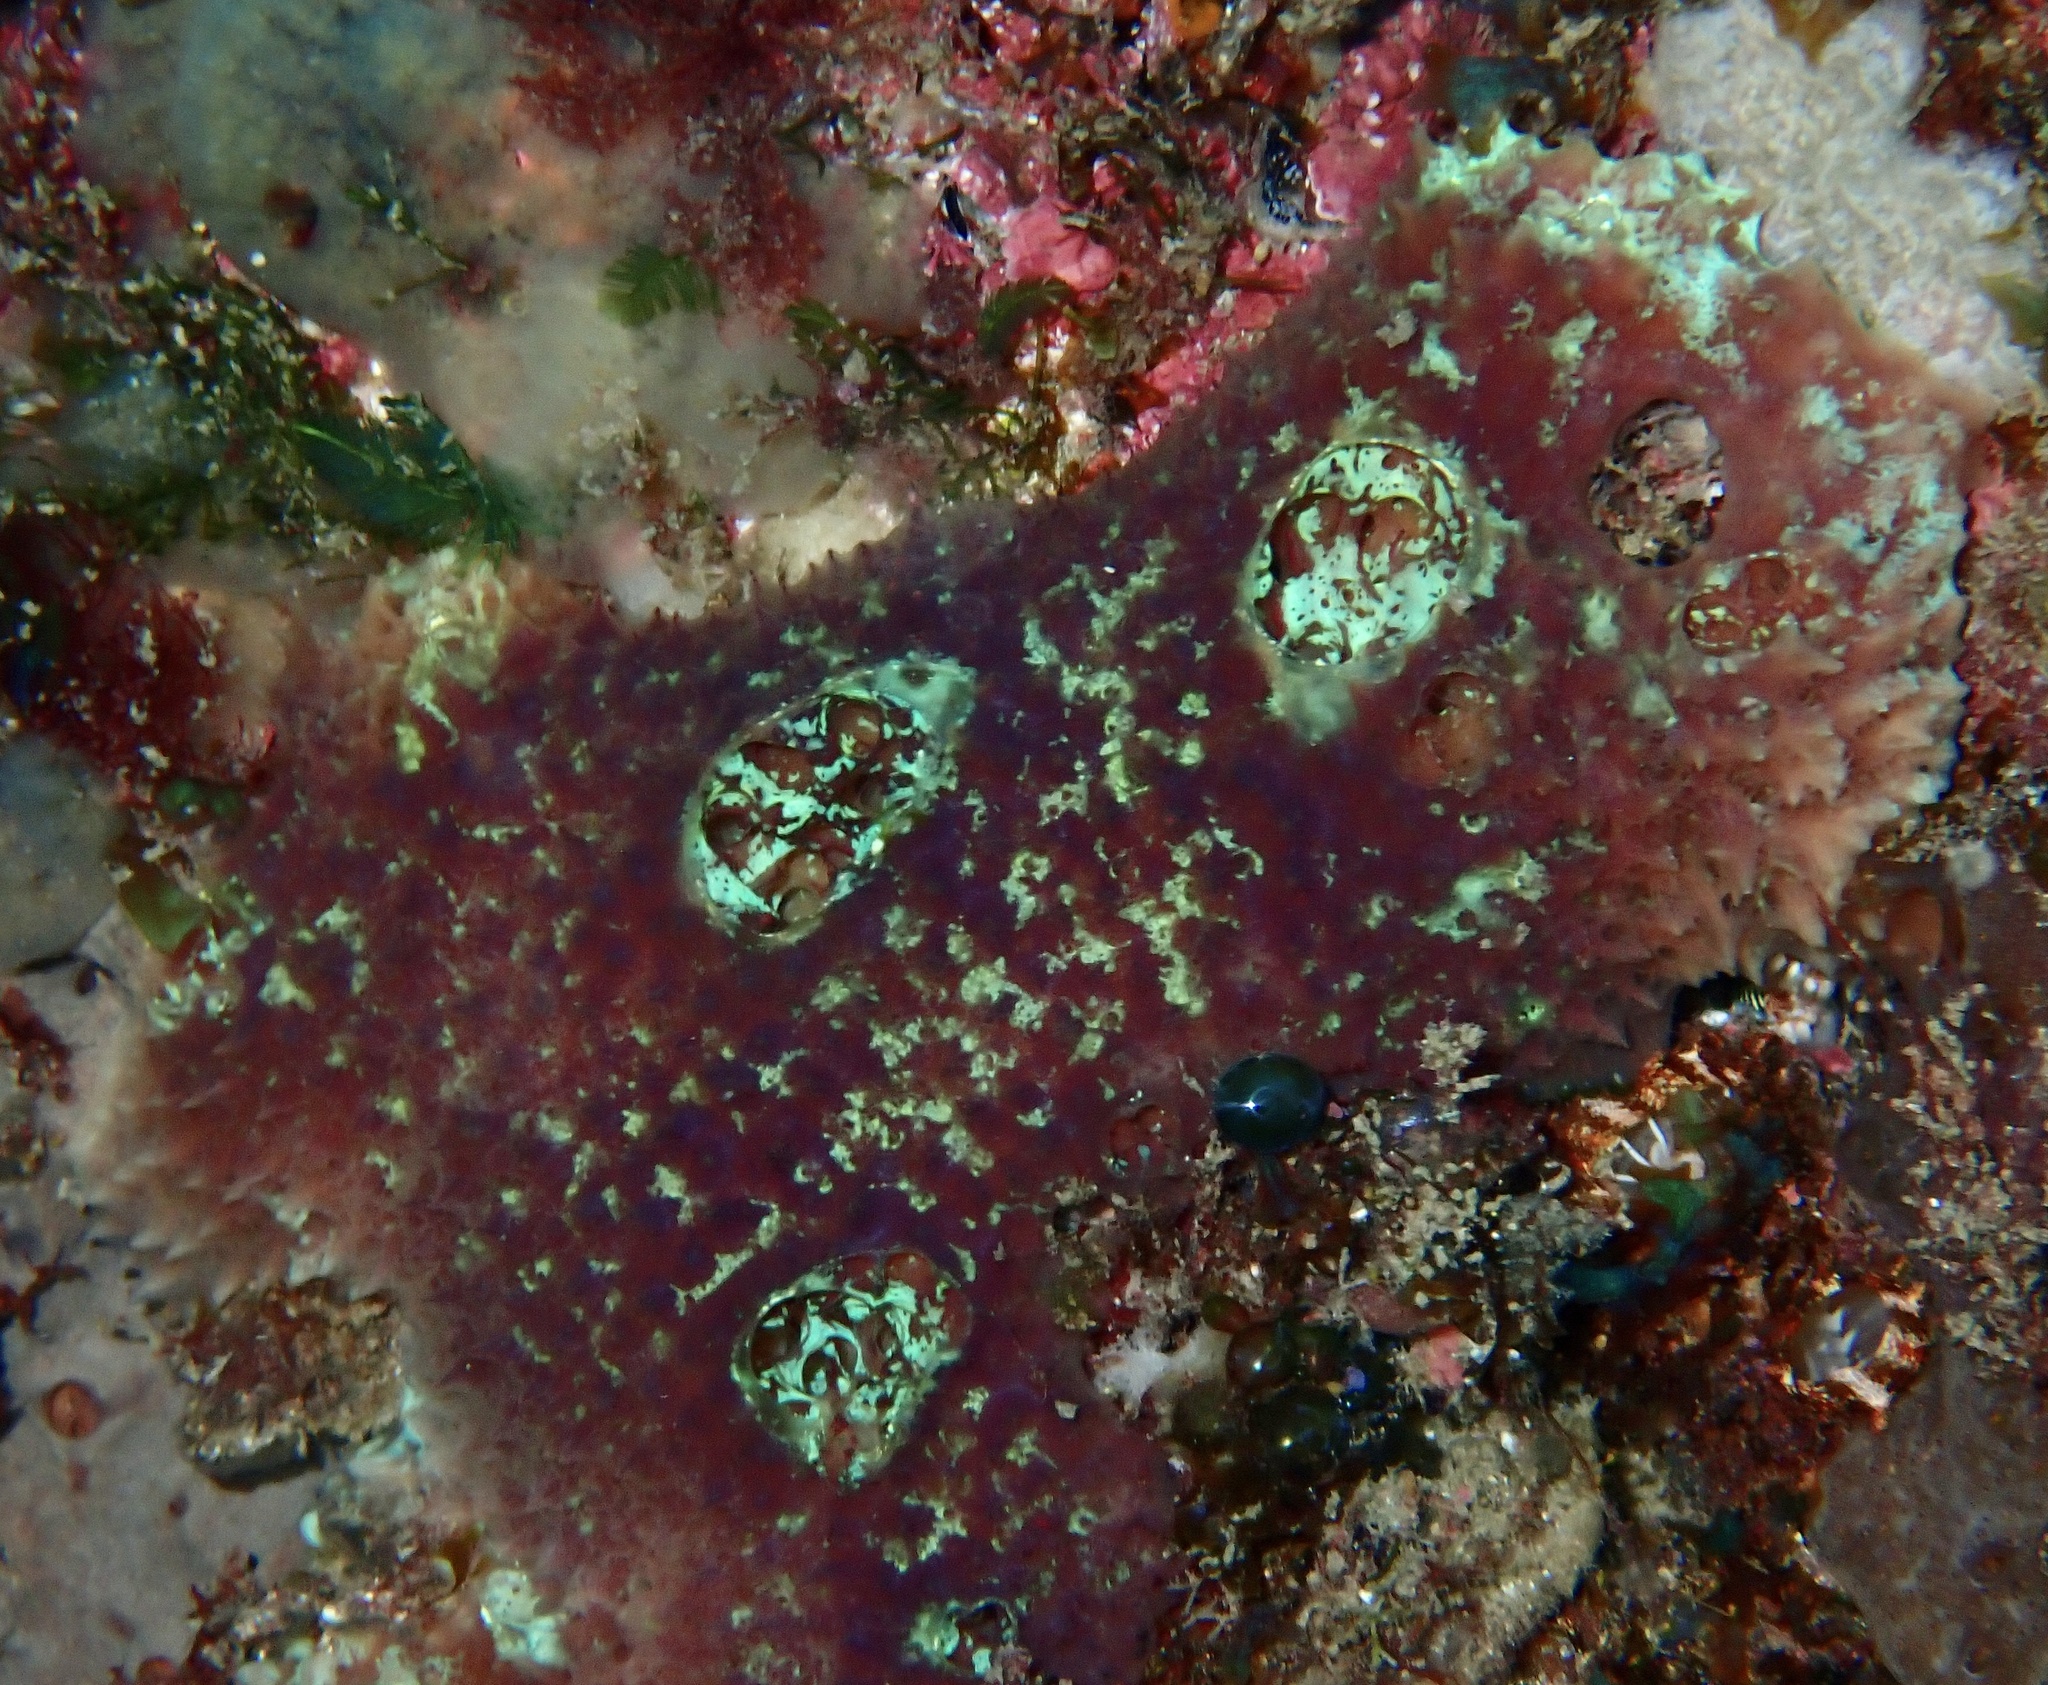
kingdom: Animalia
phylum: Porifera
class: Demospongiae
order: Poecilosclerida
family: Mycalidae
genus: Mycale
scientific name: Mycale laxissima
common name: Strawberry vase sponge
